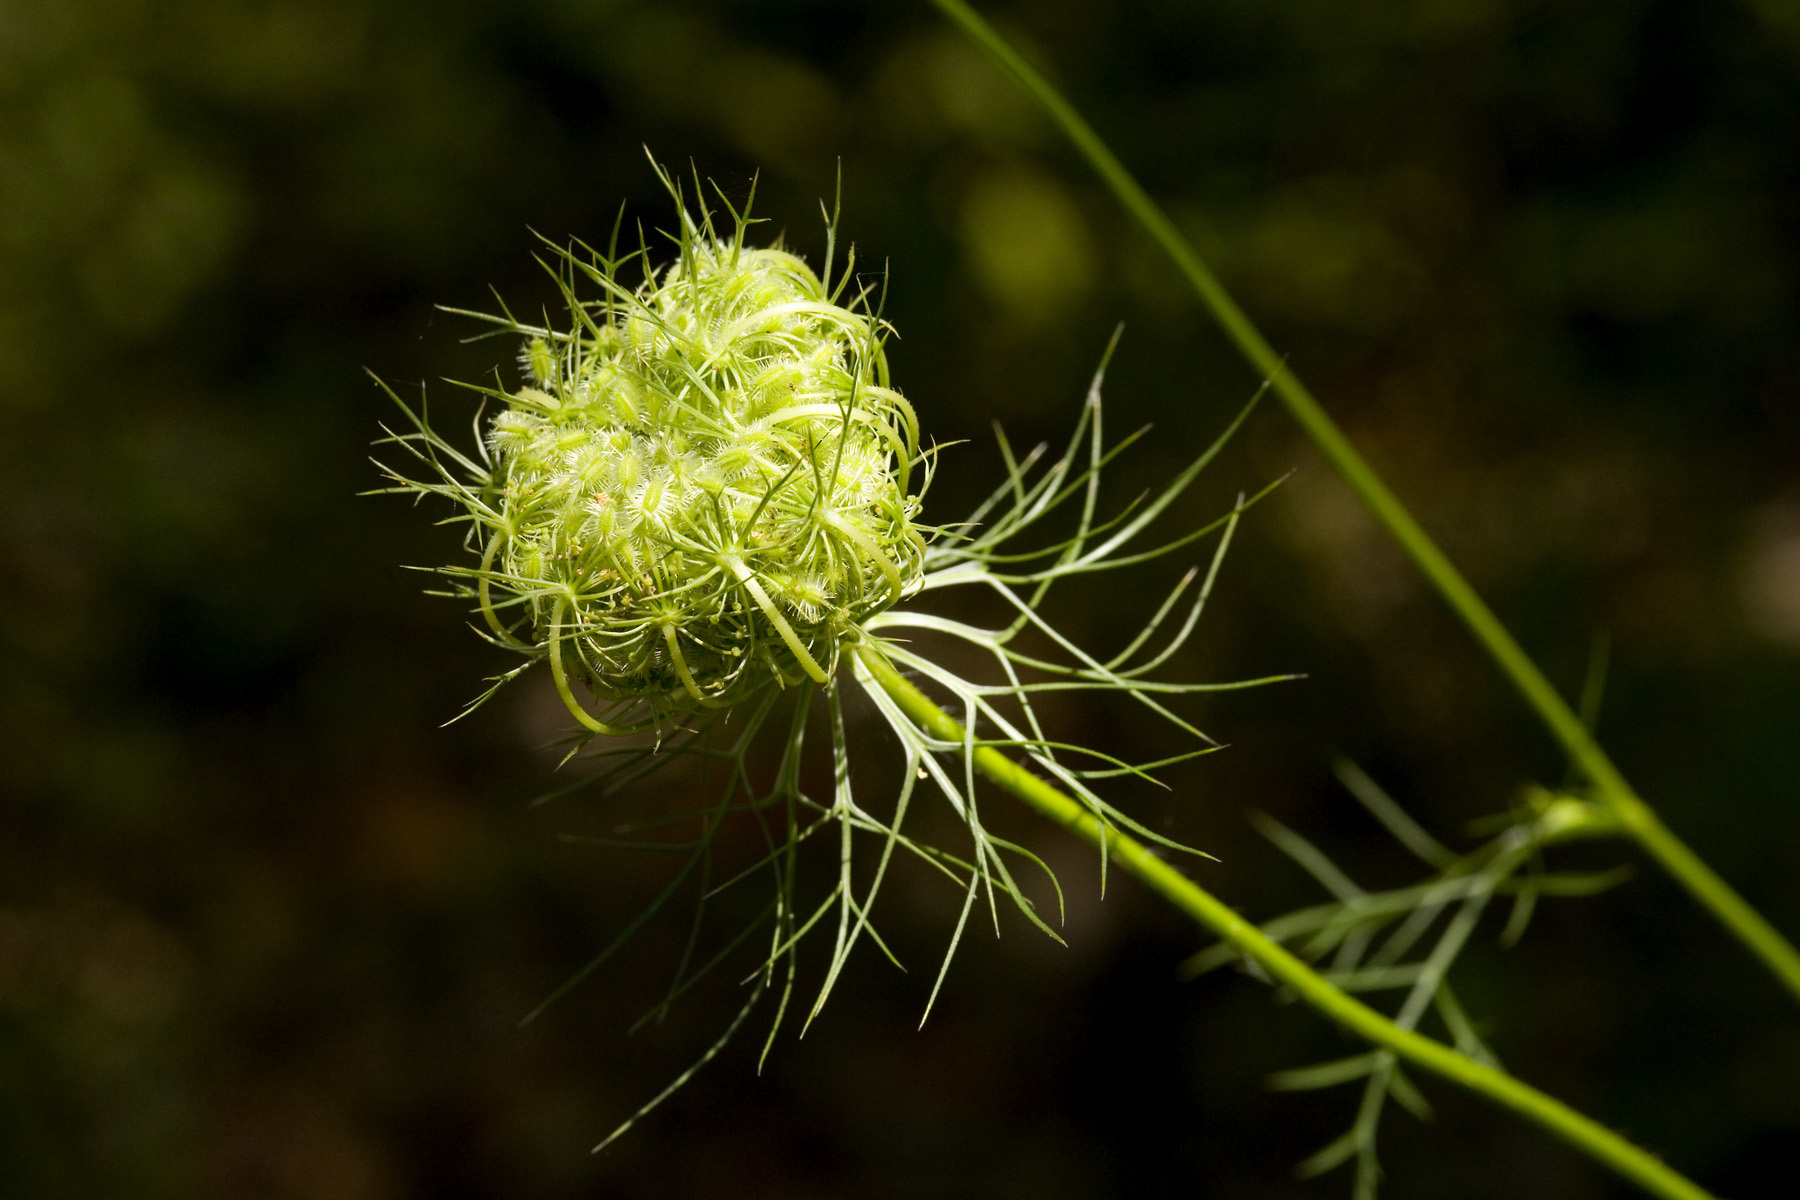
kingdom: Plantae
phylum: Tracheophyta
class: Magnoliopsida
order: Apiales
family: Apiaceae
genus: Daucus
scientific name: Daucus carota
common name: Wild carrot
